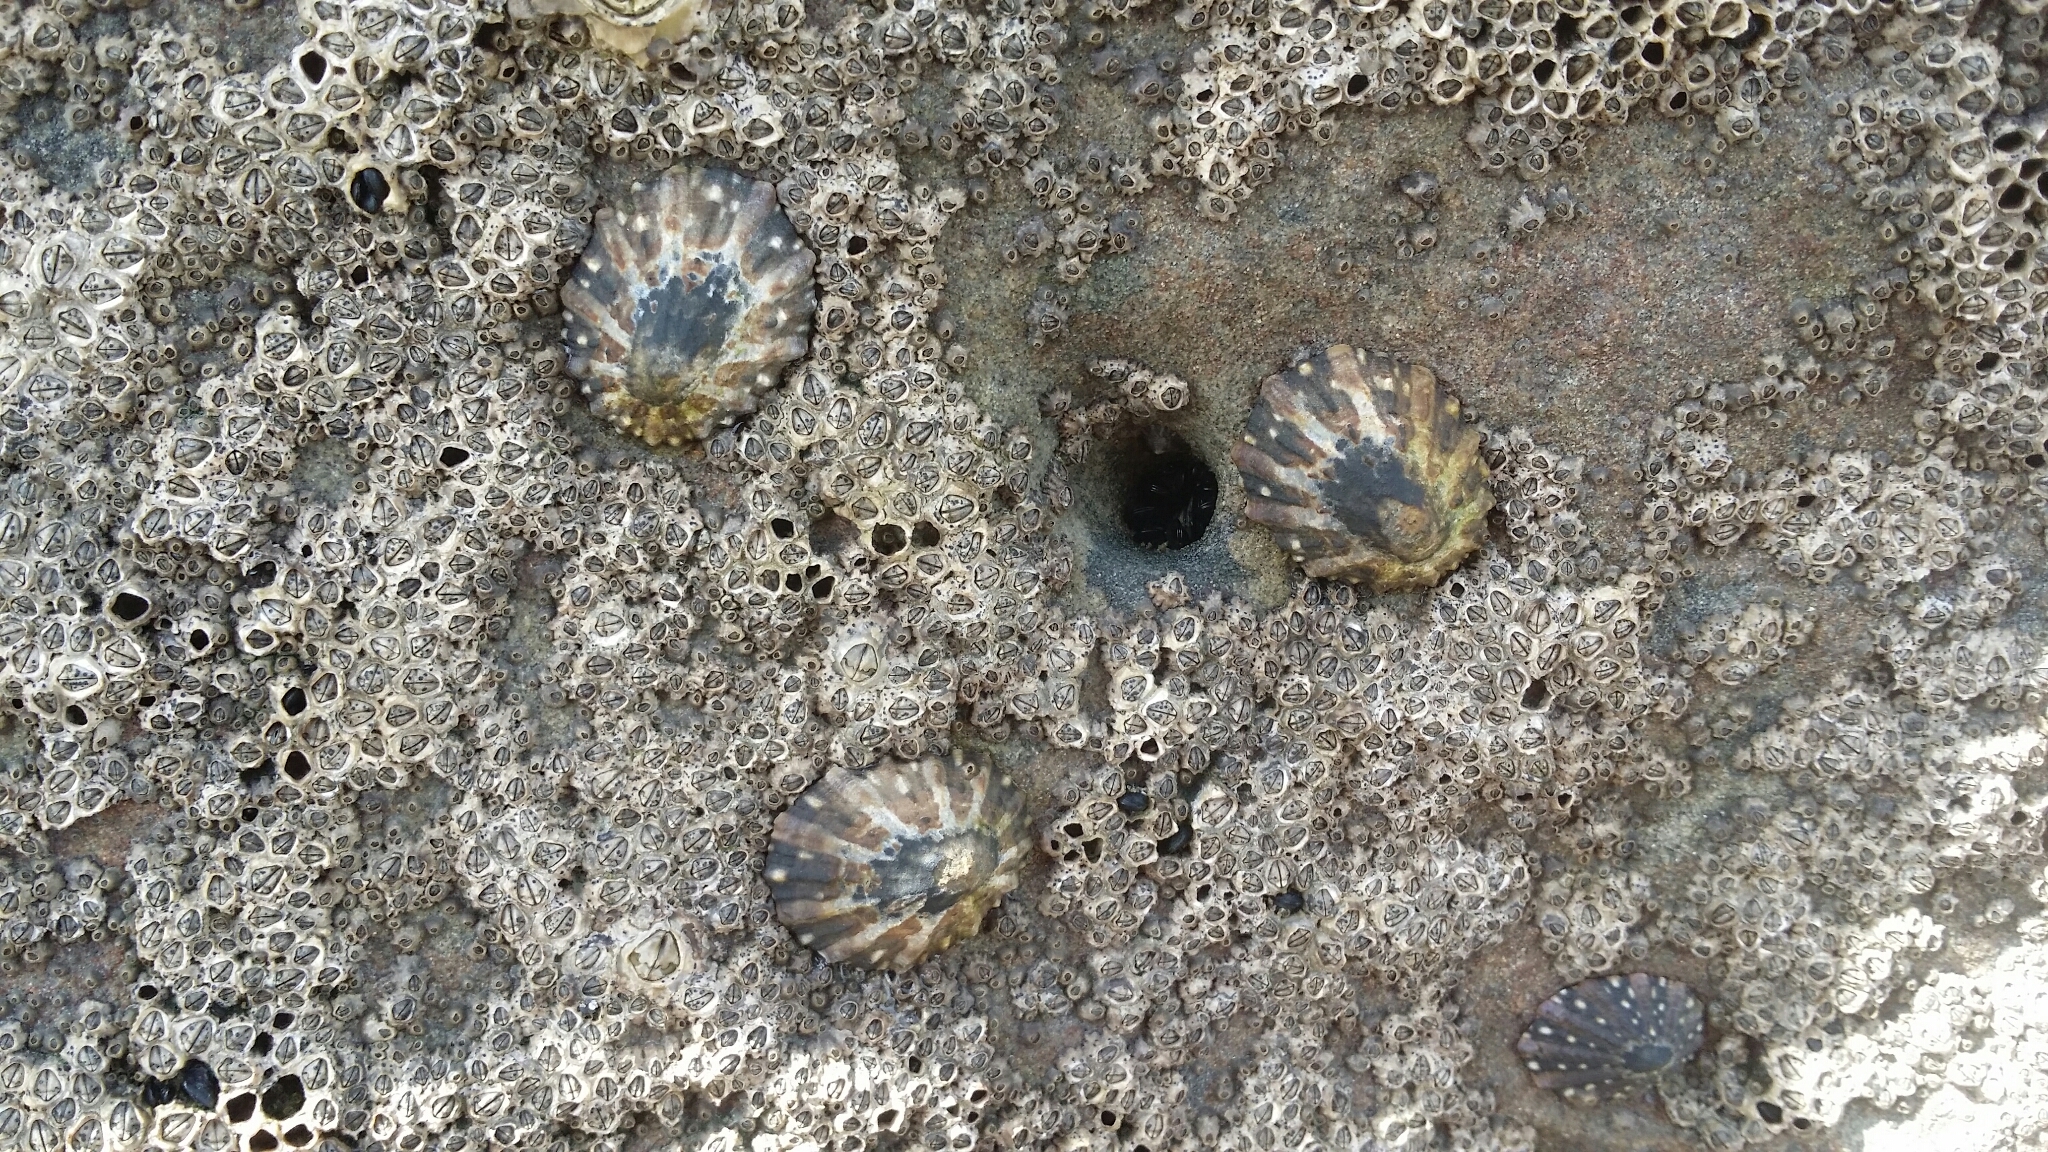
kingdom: Animalia
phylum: Mollusca
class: Gastropoda
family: Nacellidae
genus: Cellana
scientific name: Cellana ornata
